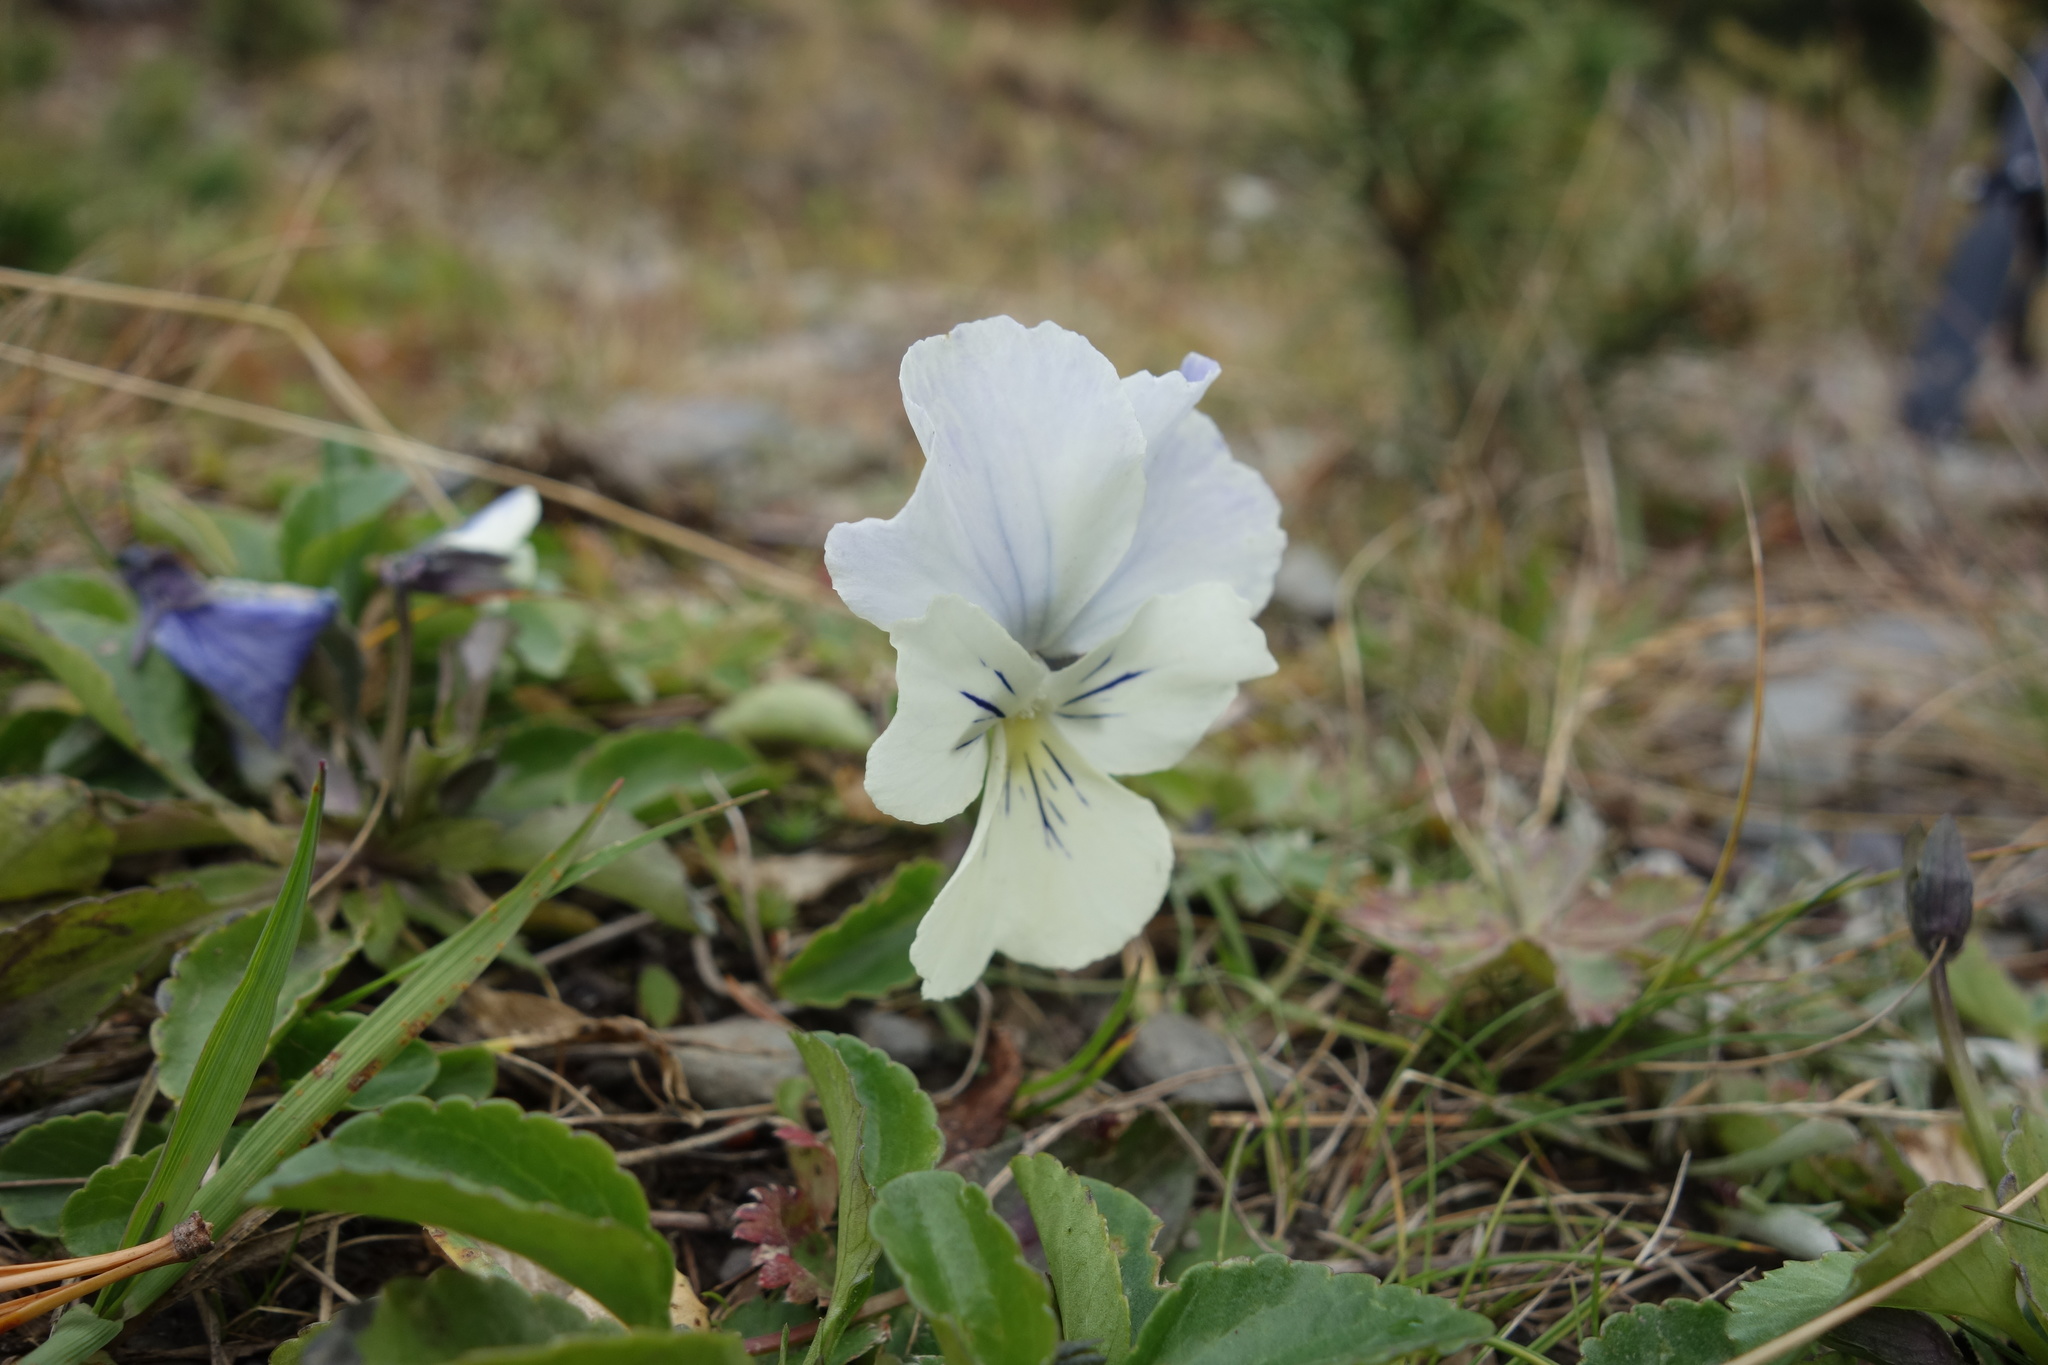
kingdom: Plantae
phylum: Tracheophyta
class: Magnoliopsida
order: Malpighiales
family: Violaceae
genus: Viola
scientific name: Viola altaica
